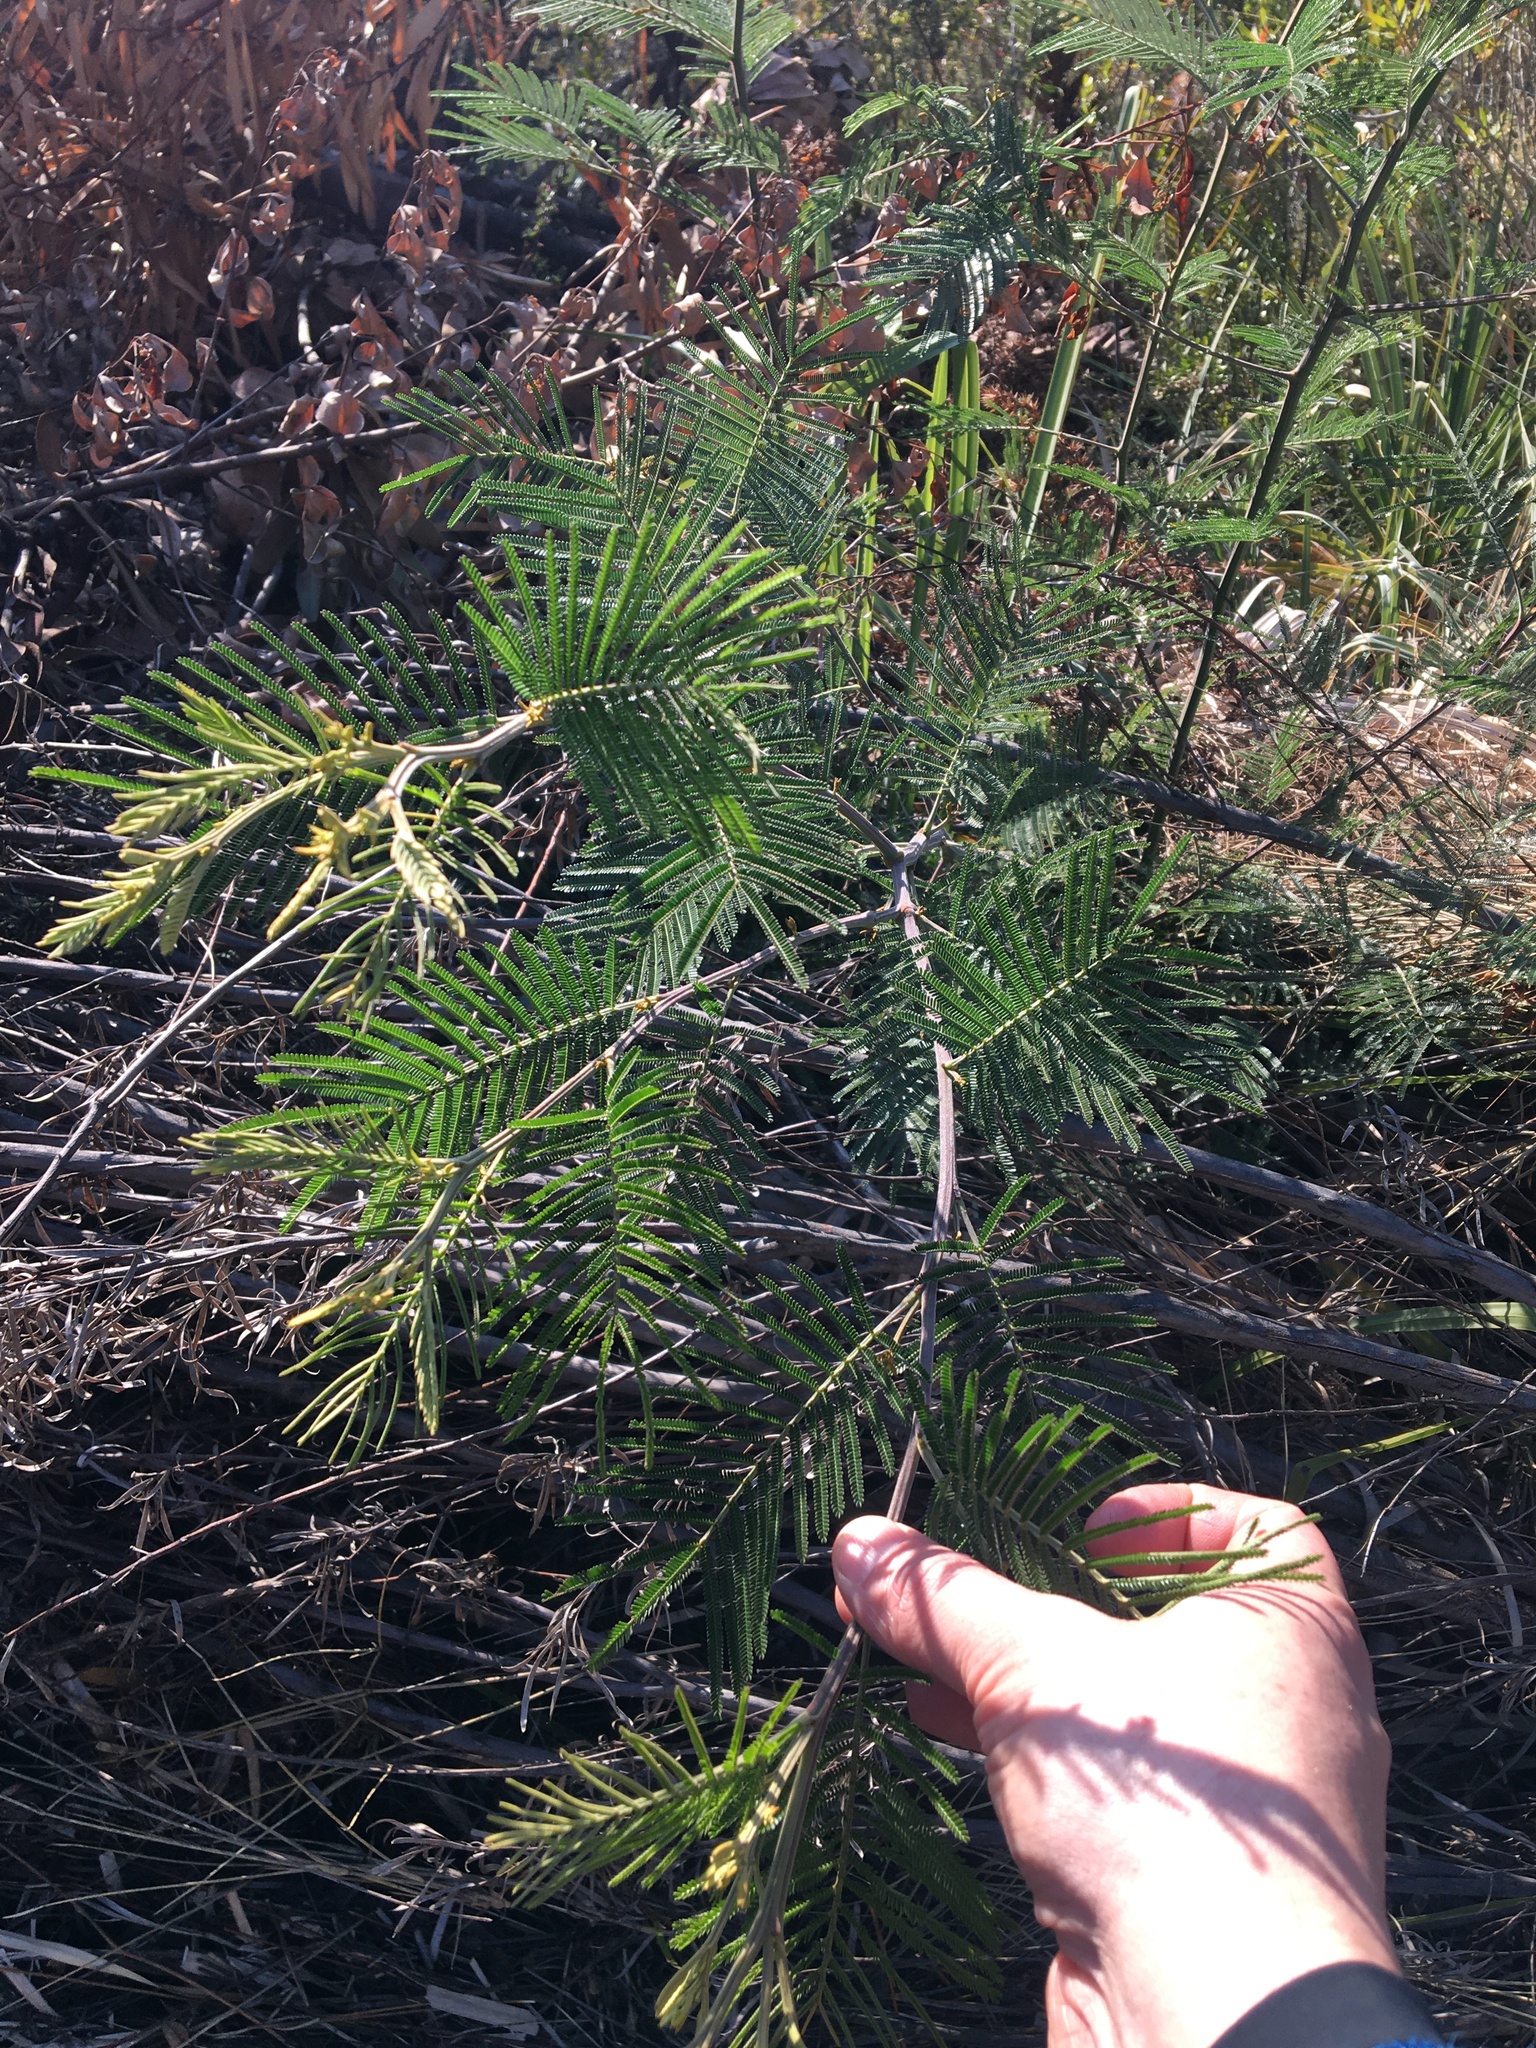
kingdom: Plantae
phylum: Tracheophyta
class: Magnoliopsida
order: Fabales
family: Fabaceae
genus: Acacia
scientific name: Acacia mearnsii
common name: Black wattle
